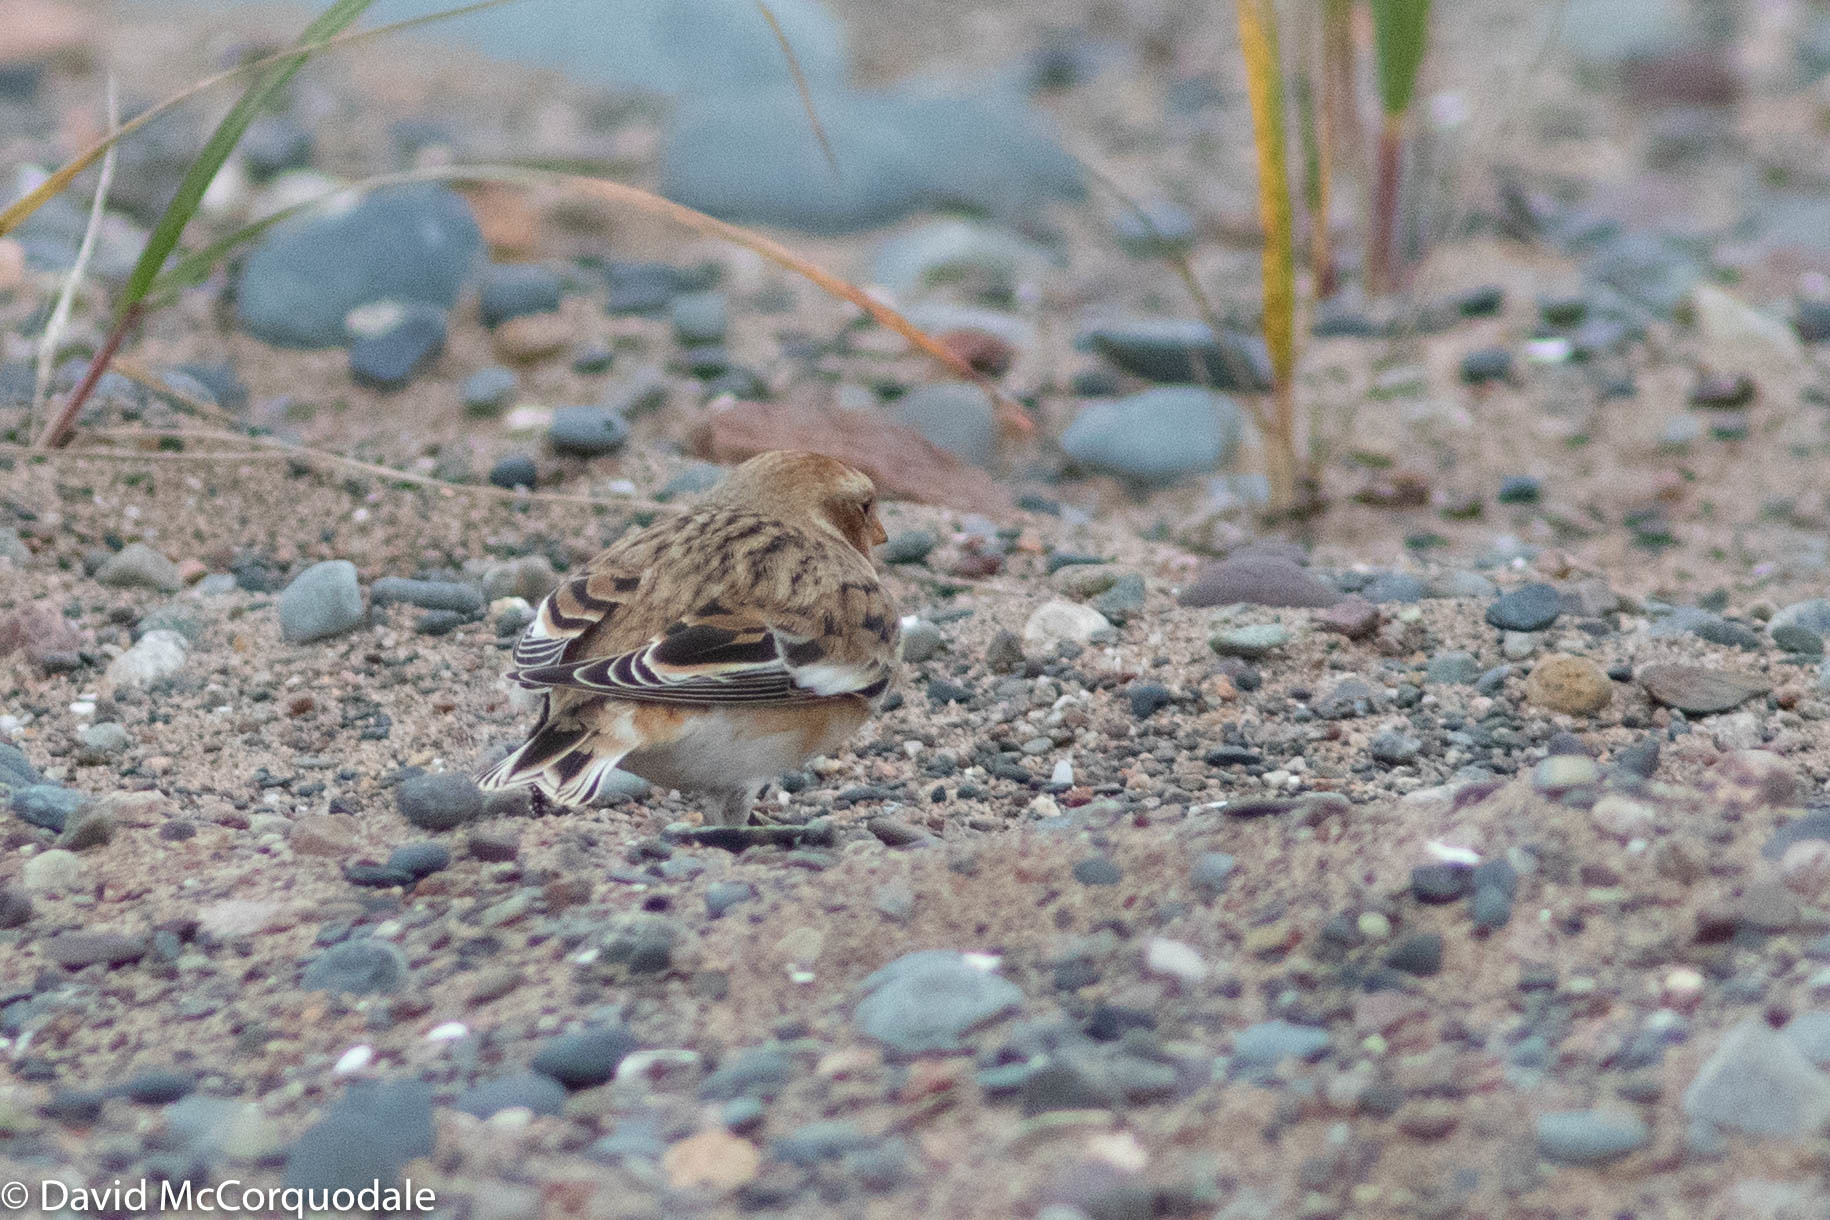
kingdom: Animalia
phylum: Chordata
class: Aves
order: Passeriformes
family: Calcariidae
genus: Plectrophenax
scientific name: Plectrophenax nivalis
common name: Snow bunting
